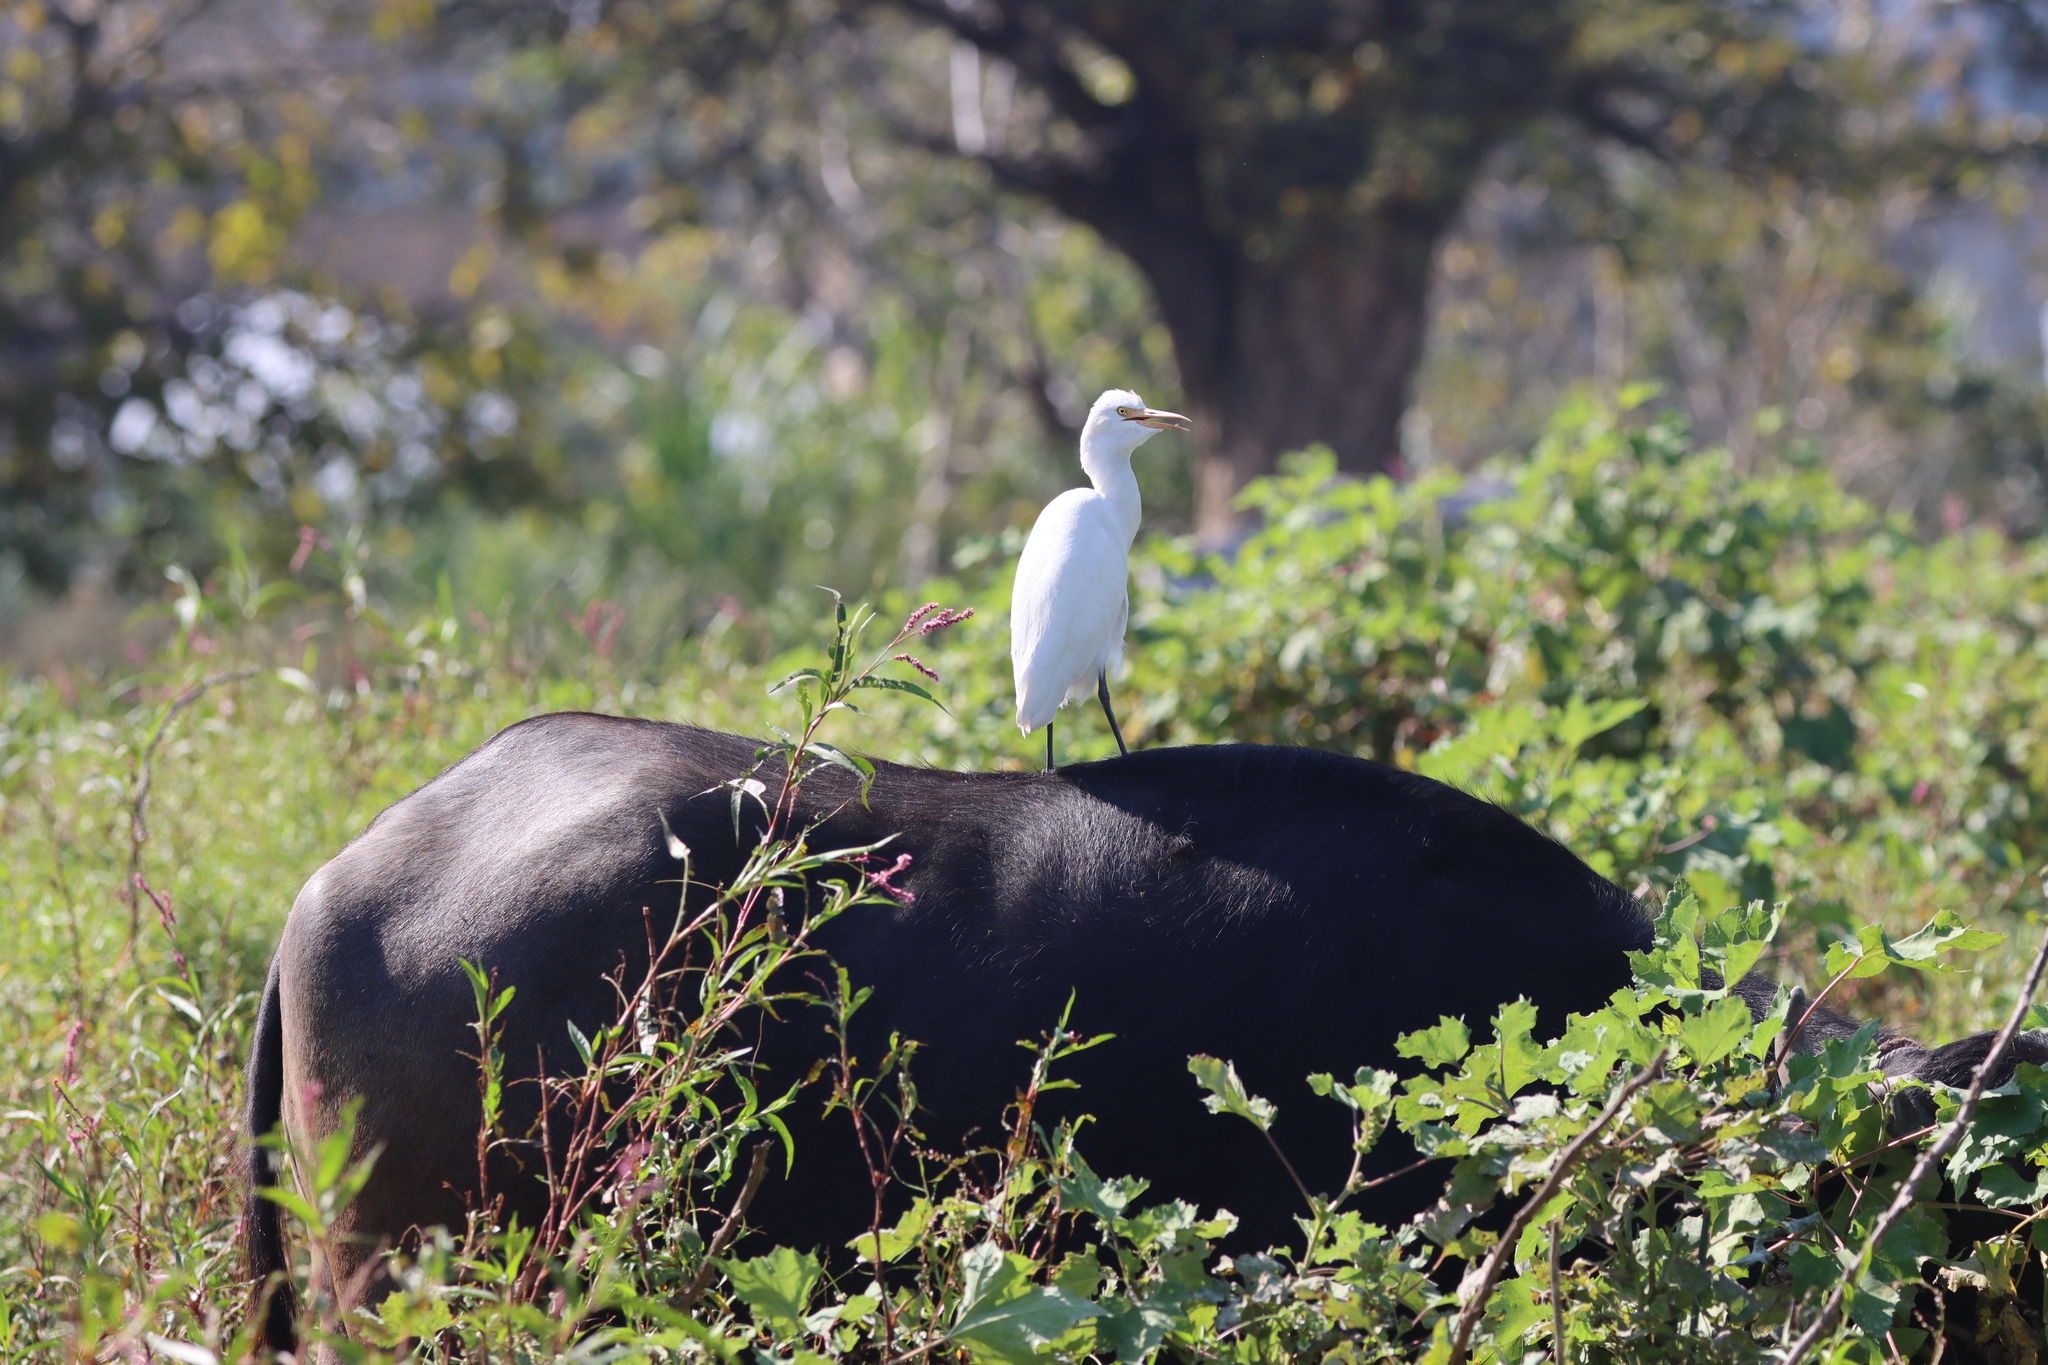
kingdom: Animalia
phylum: Chordata
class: Aves
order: Pelecaniformes
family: Ardeidae
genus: Bubulcus
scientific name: Bubulcus coromandus
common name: Eastern cattle egret
